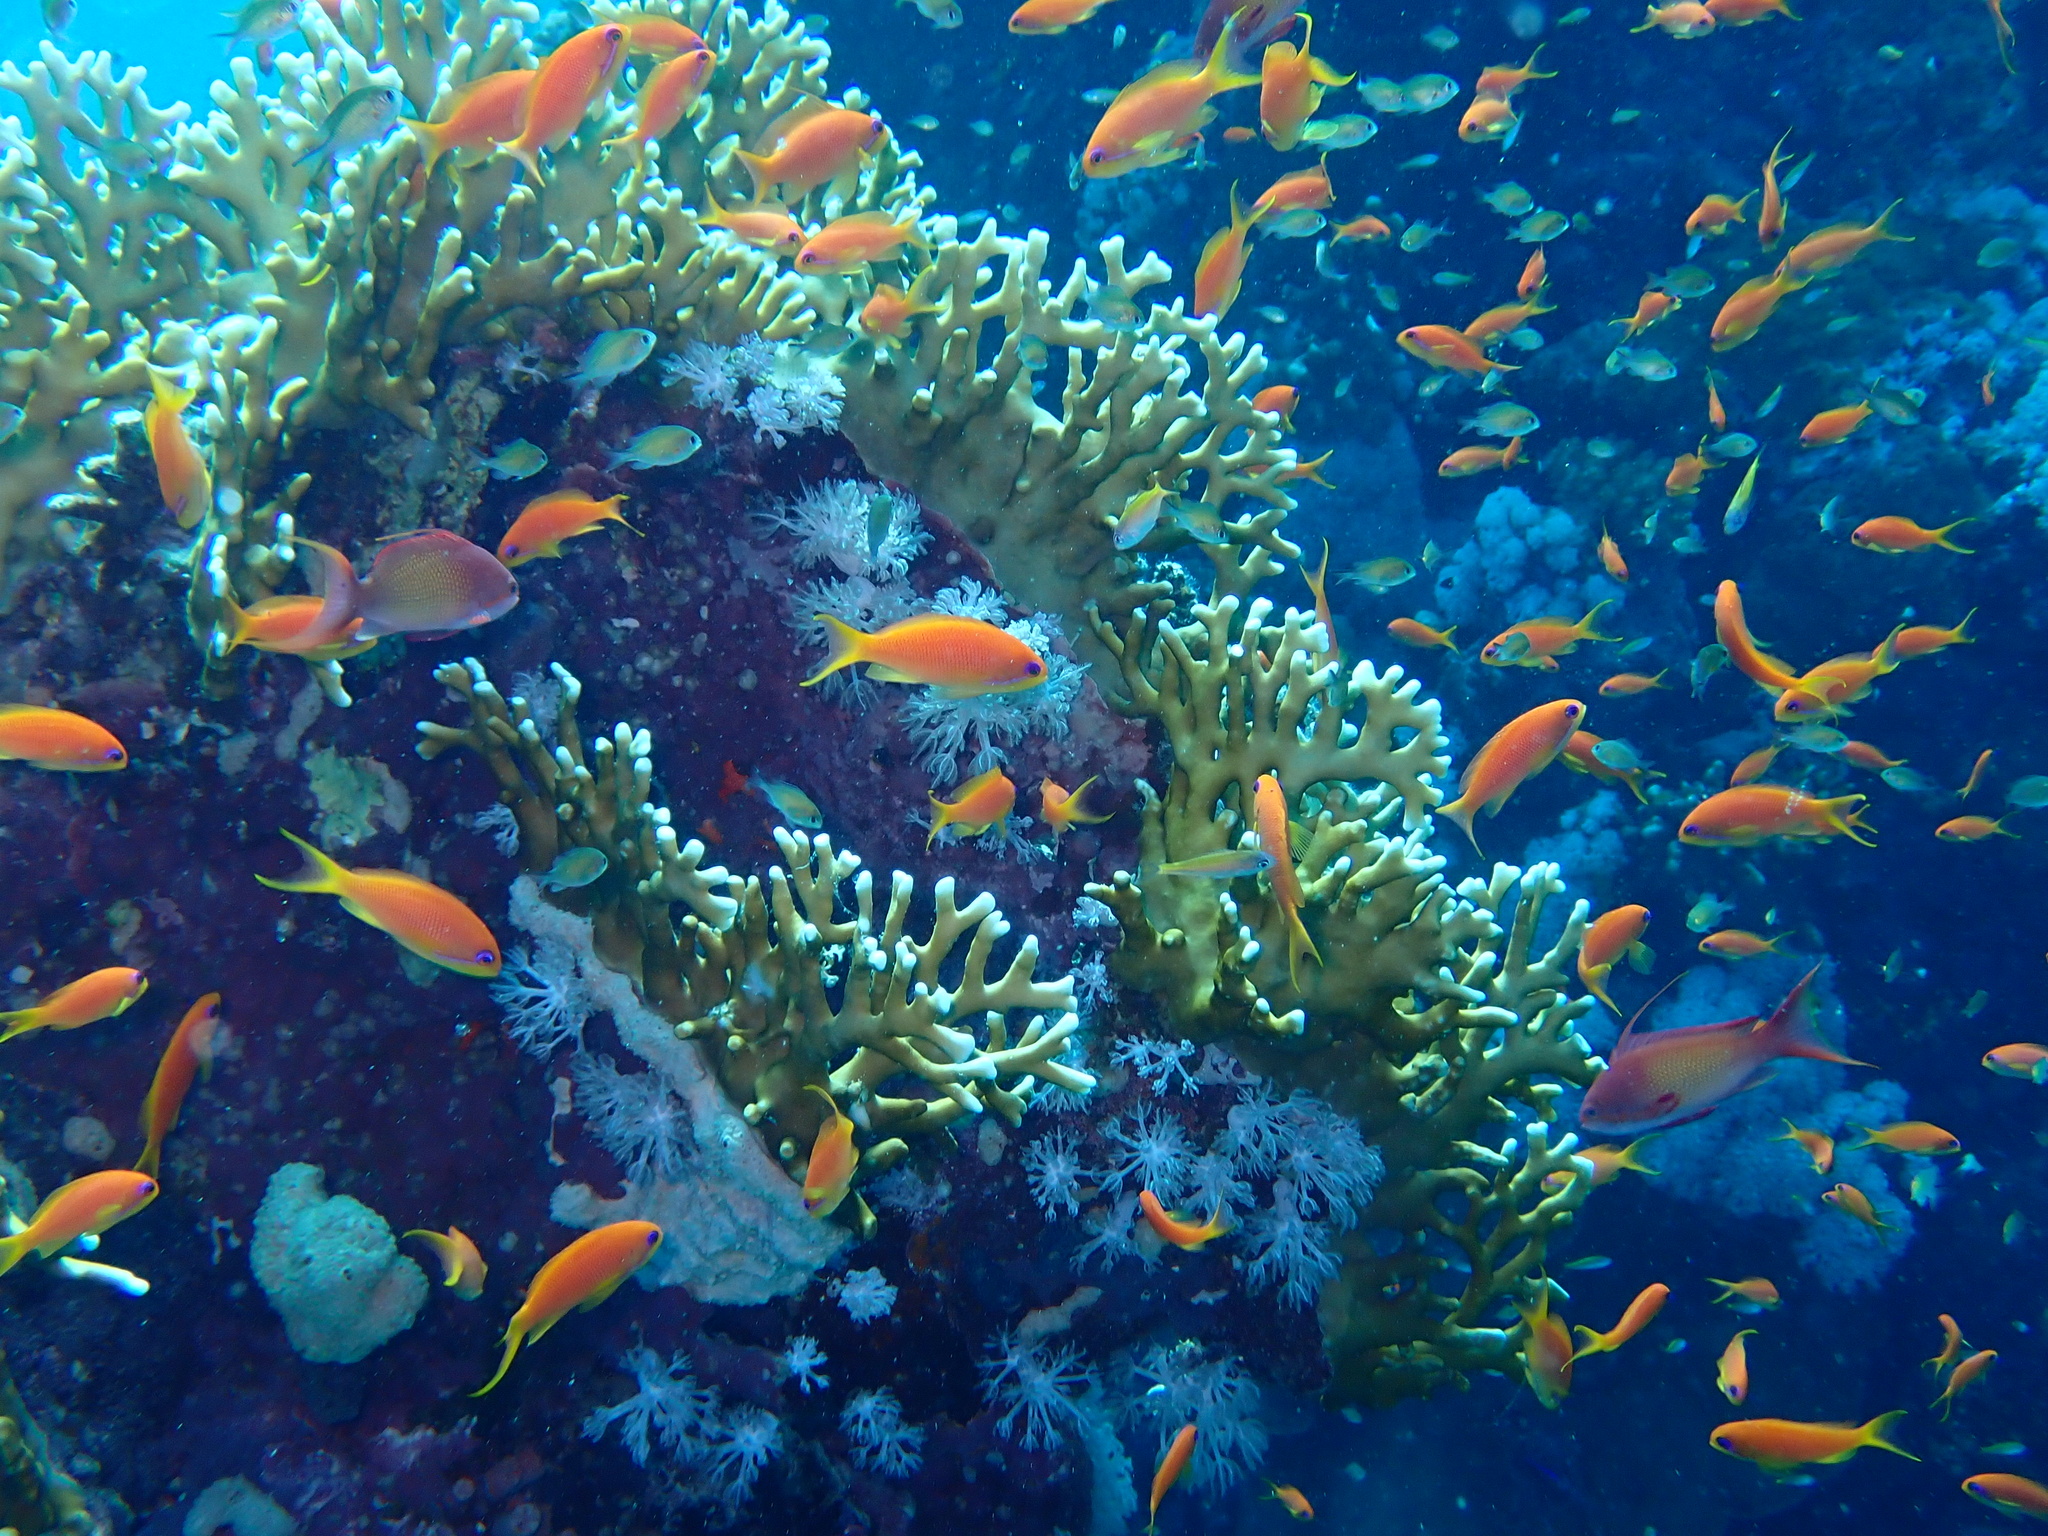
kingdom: Animalia
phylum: Chordata
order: Perciformes
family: Serranidae
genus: Pseudanthias
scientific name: Pseudanthias squamipinnis
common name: Scalefin anthias
